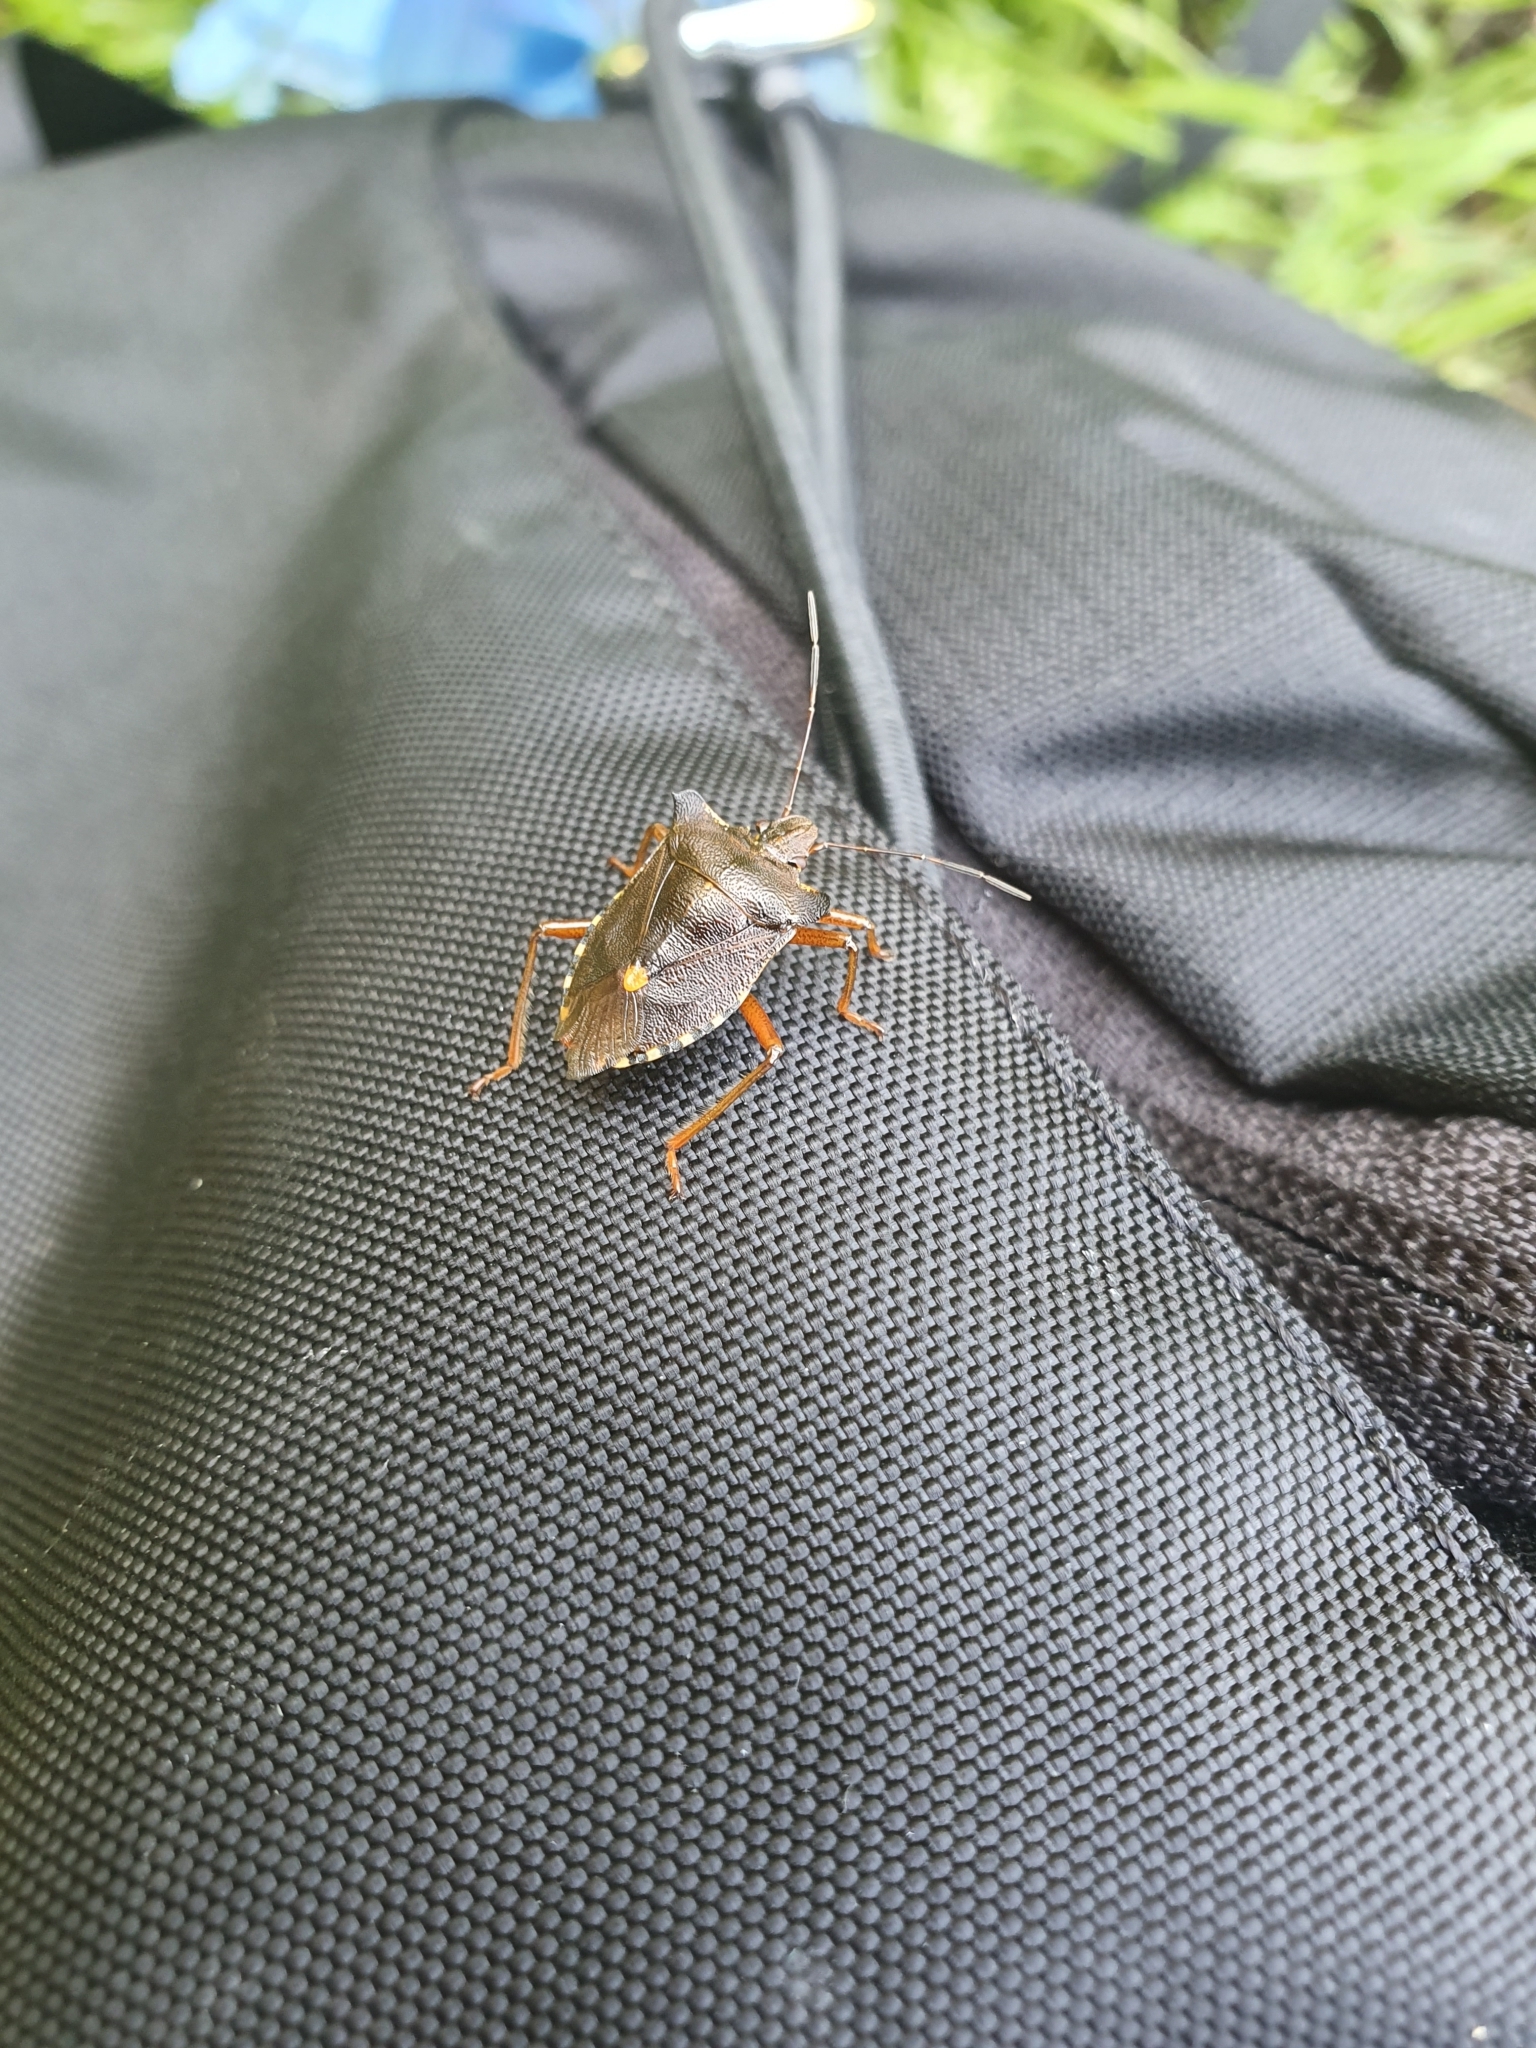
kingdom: Animalia
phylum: Arthropoda
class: Insecta
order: Hemiptera
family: Pentatomidae
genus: Pentatoma
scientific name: Pentatoma rufipes
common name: Forest bug
